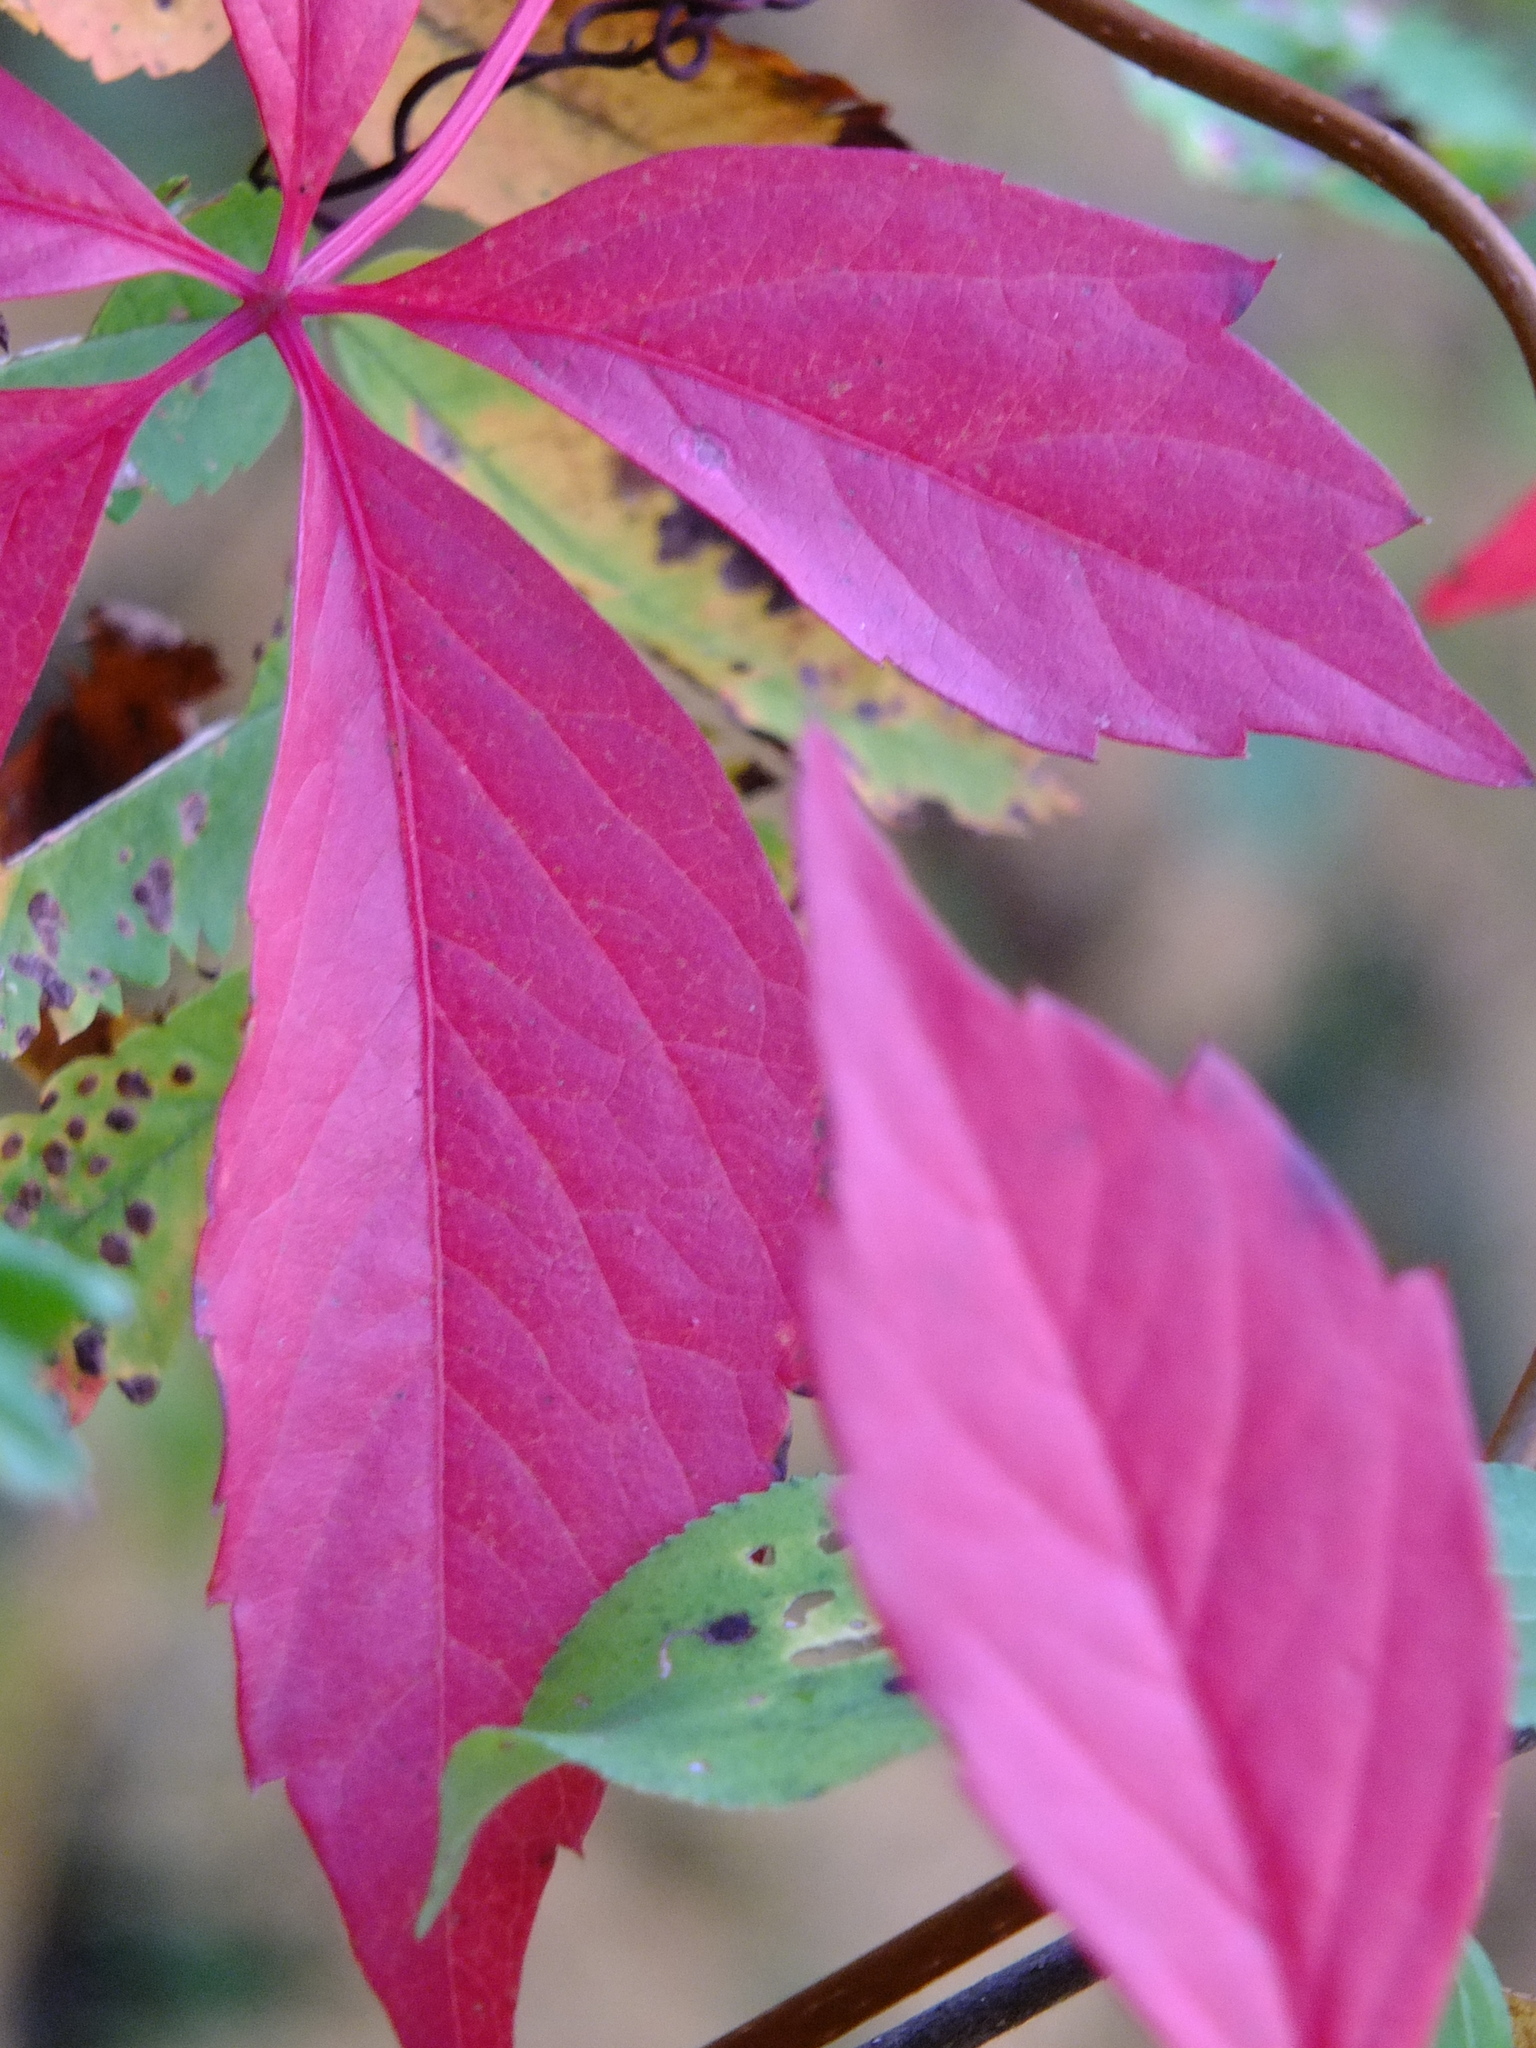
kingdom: Plantae
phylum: Tracheophyta
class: Magnoliopsida
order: Vitales
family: Vitaceae
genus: Parthenocissus
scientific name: Parthenocissus inserta
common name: False virginia-creeper
